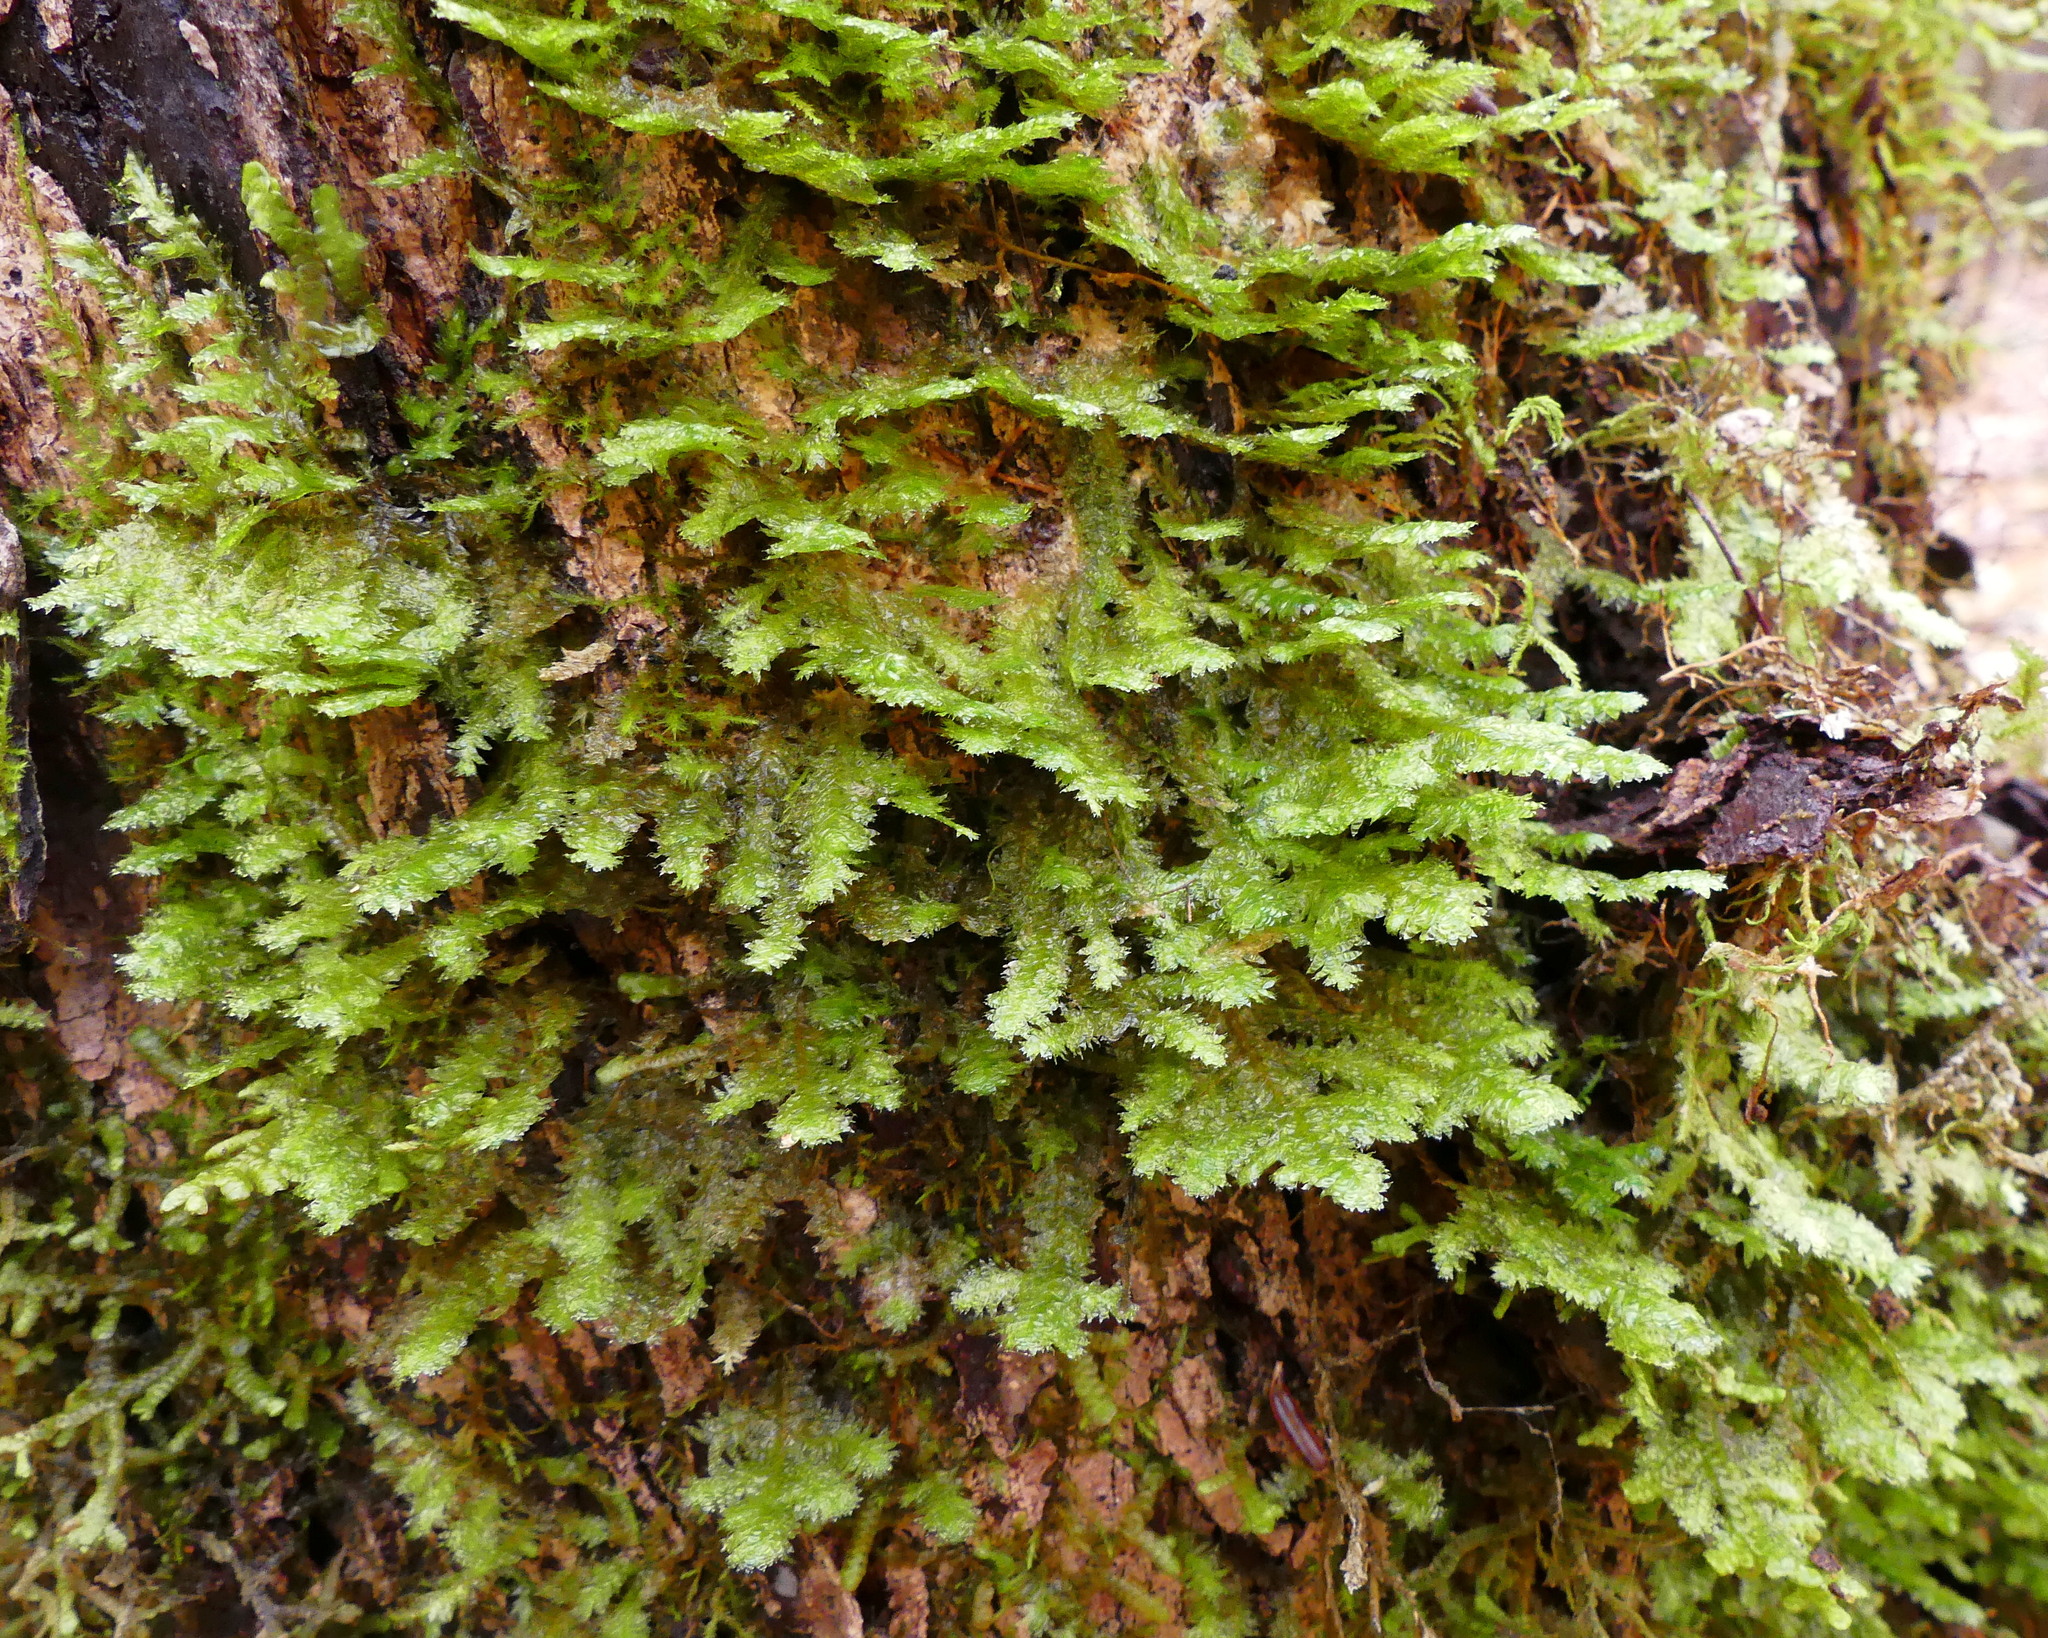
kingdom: Plantae
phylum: Bryophyta
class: Bryopsida
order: Hypnales
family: Neckeraceae
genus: Neckera
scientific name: Neckera pennata
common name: Feathery neckera
